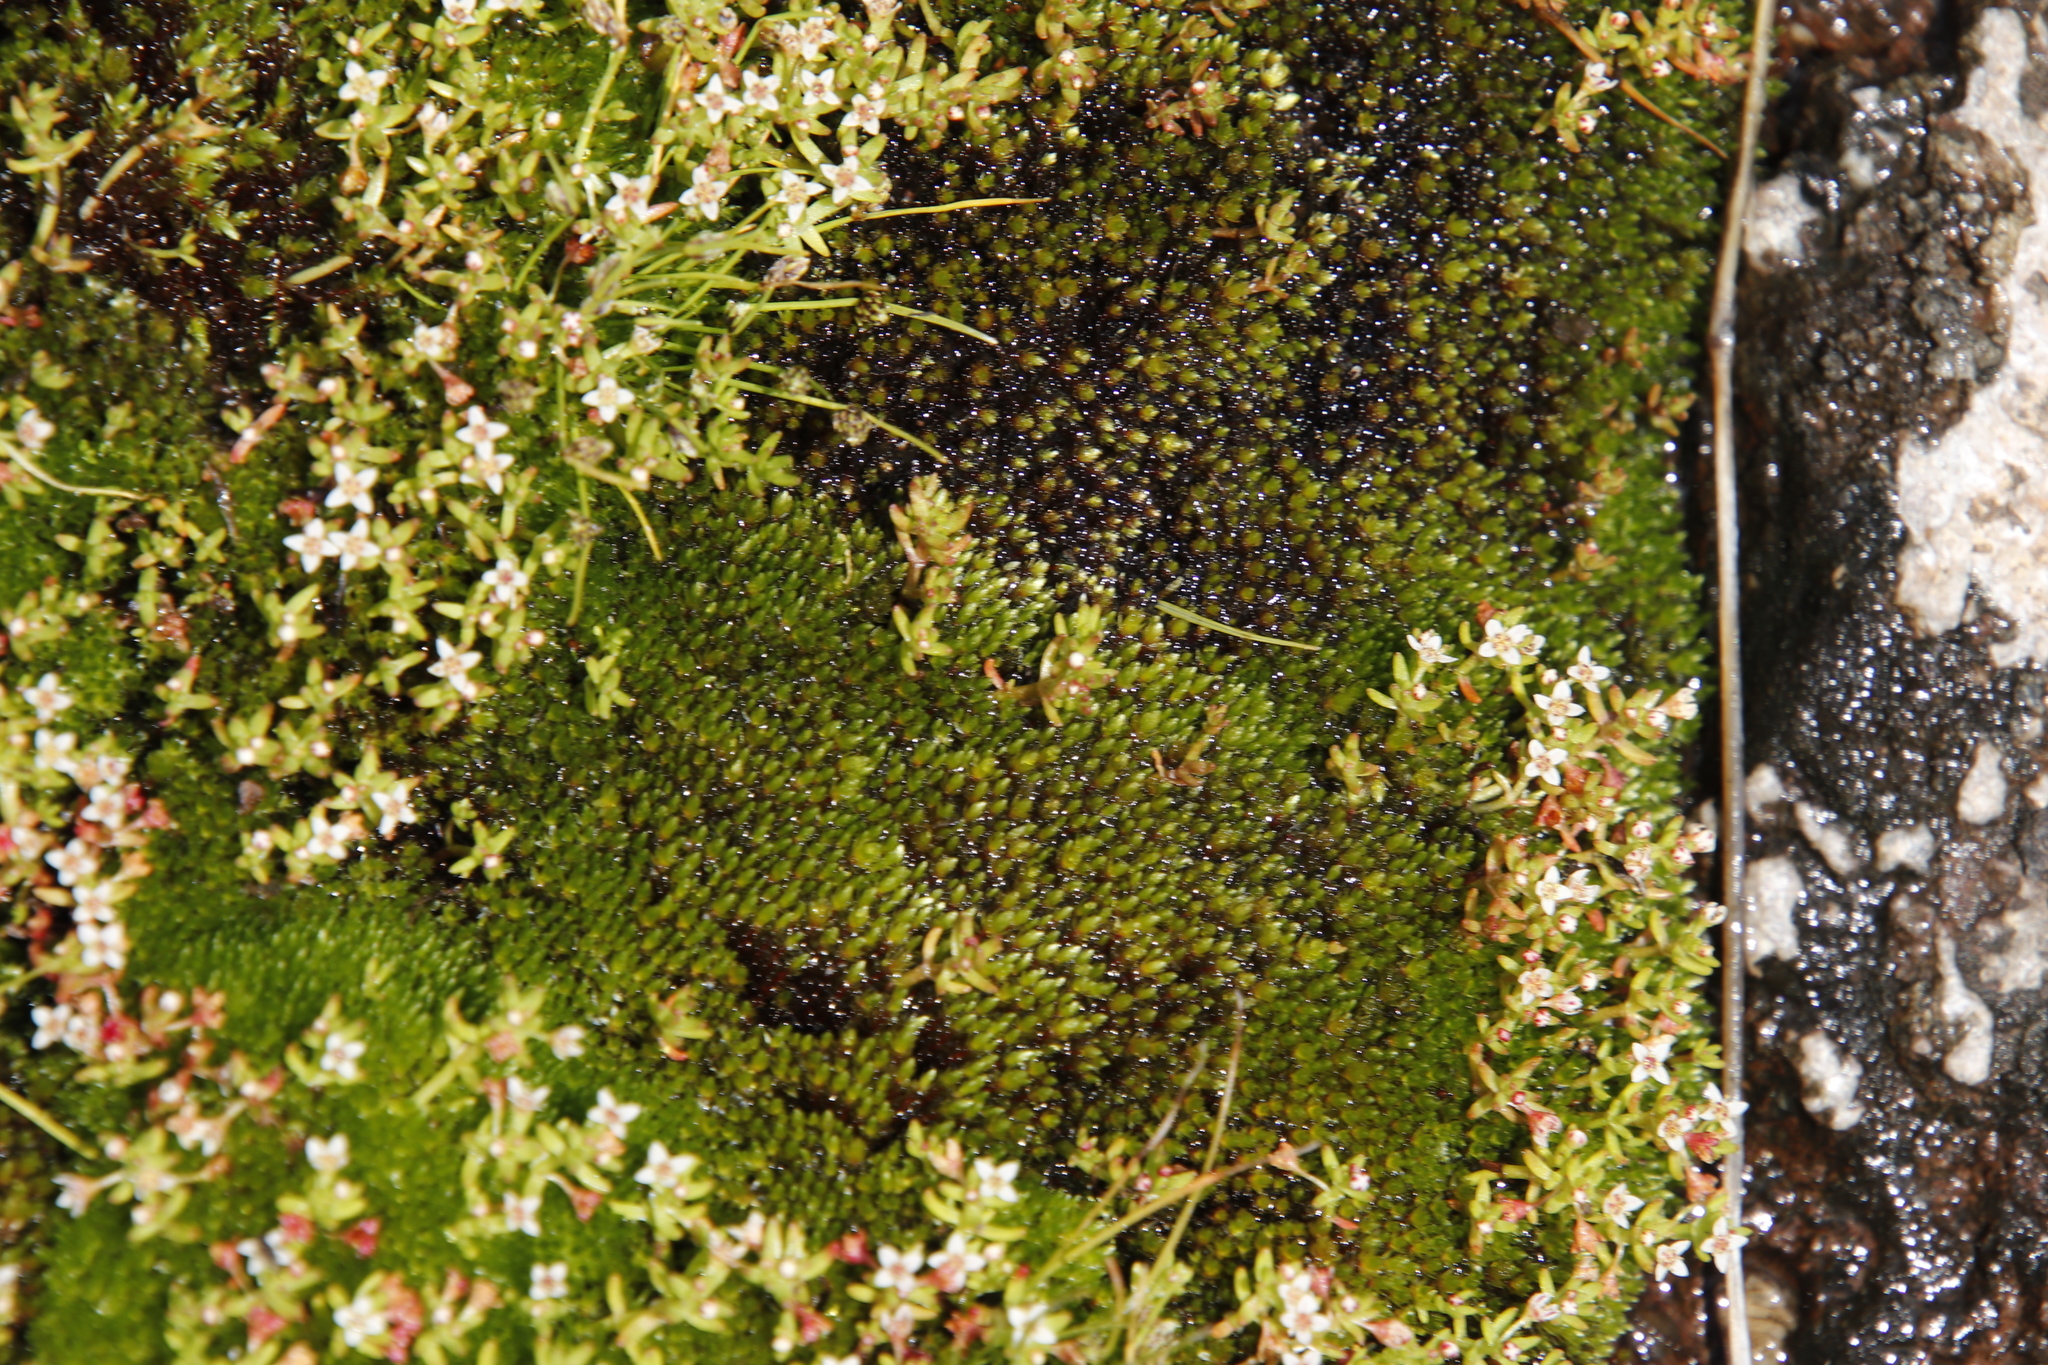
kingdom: Plantae
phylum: Tracheophyta
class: Magnoliopsida
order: Saxifragales
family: Crassulaceae
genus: Crassula
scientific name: Crassula natans
